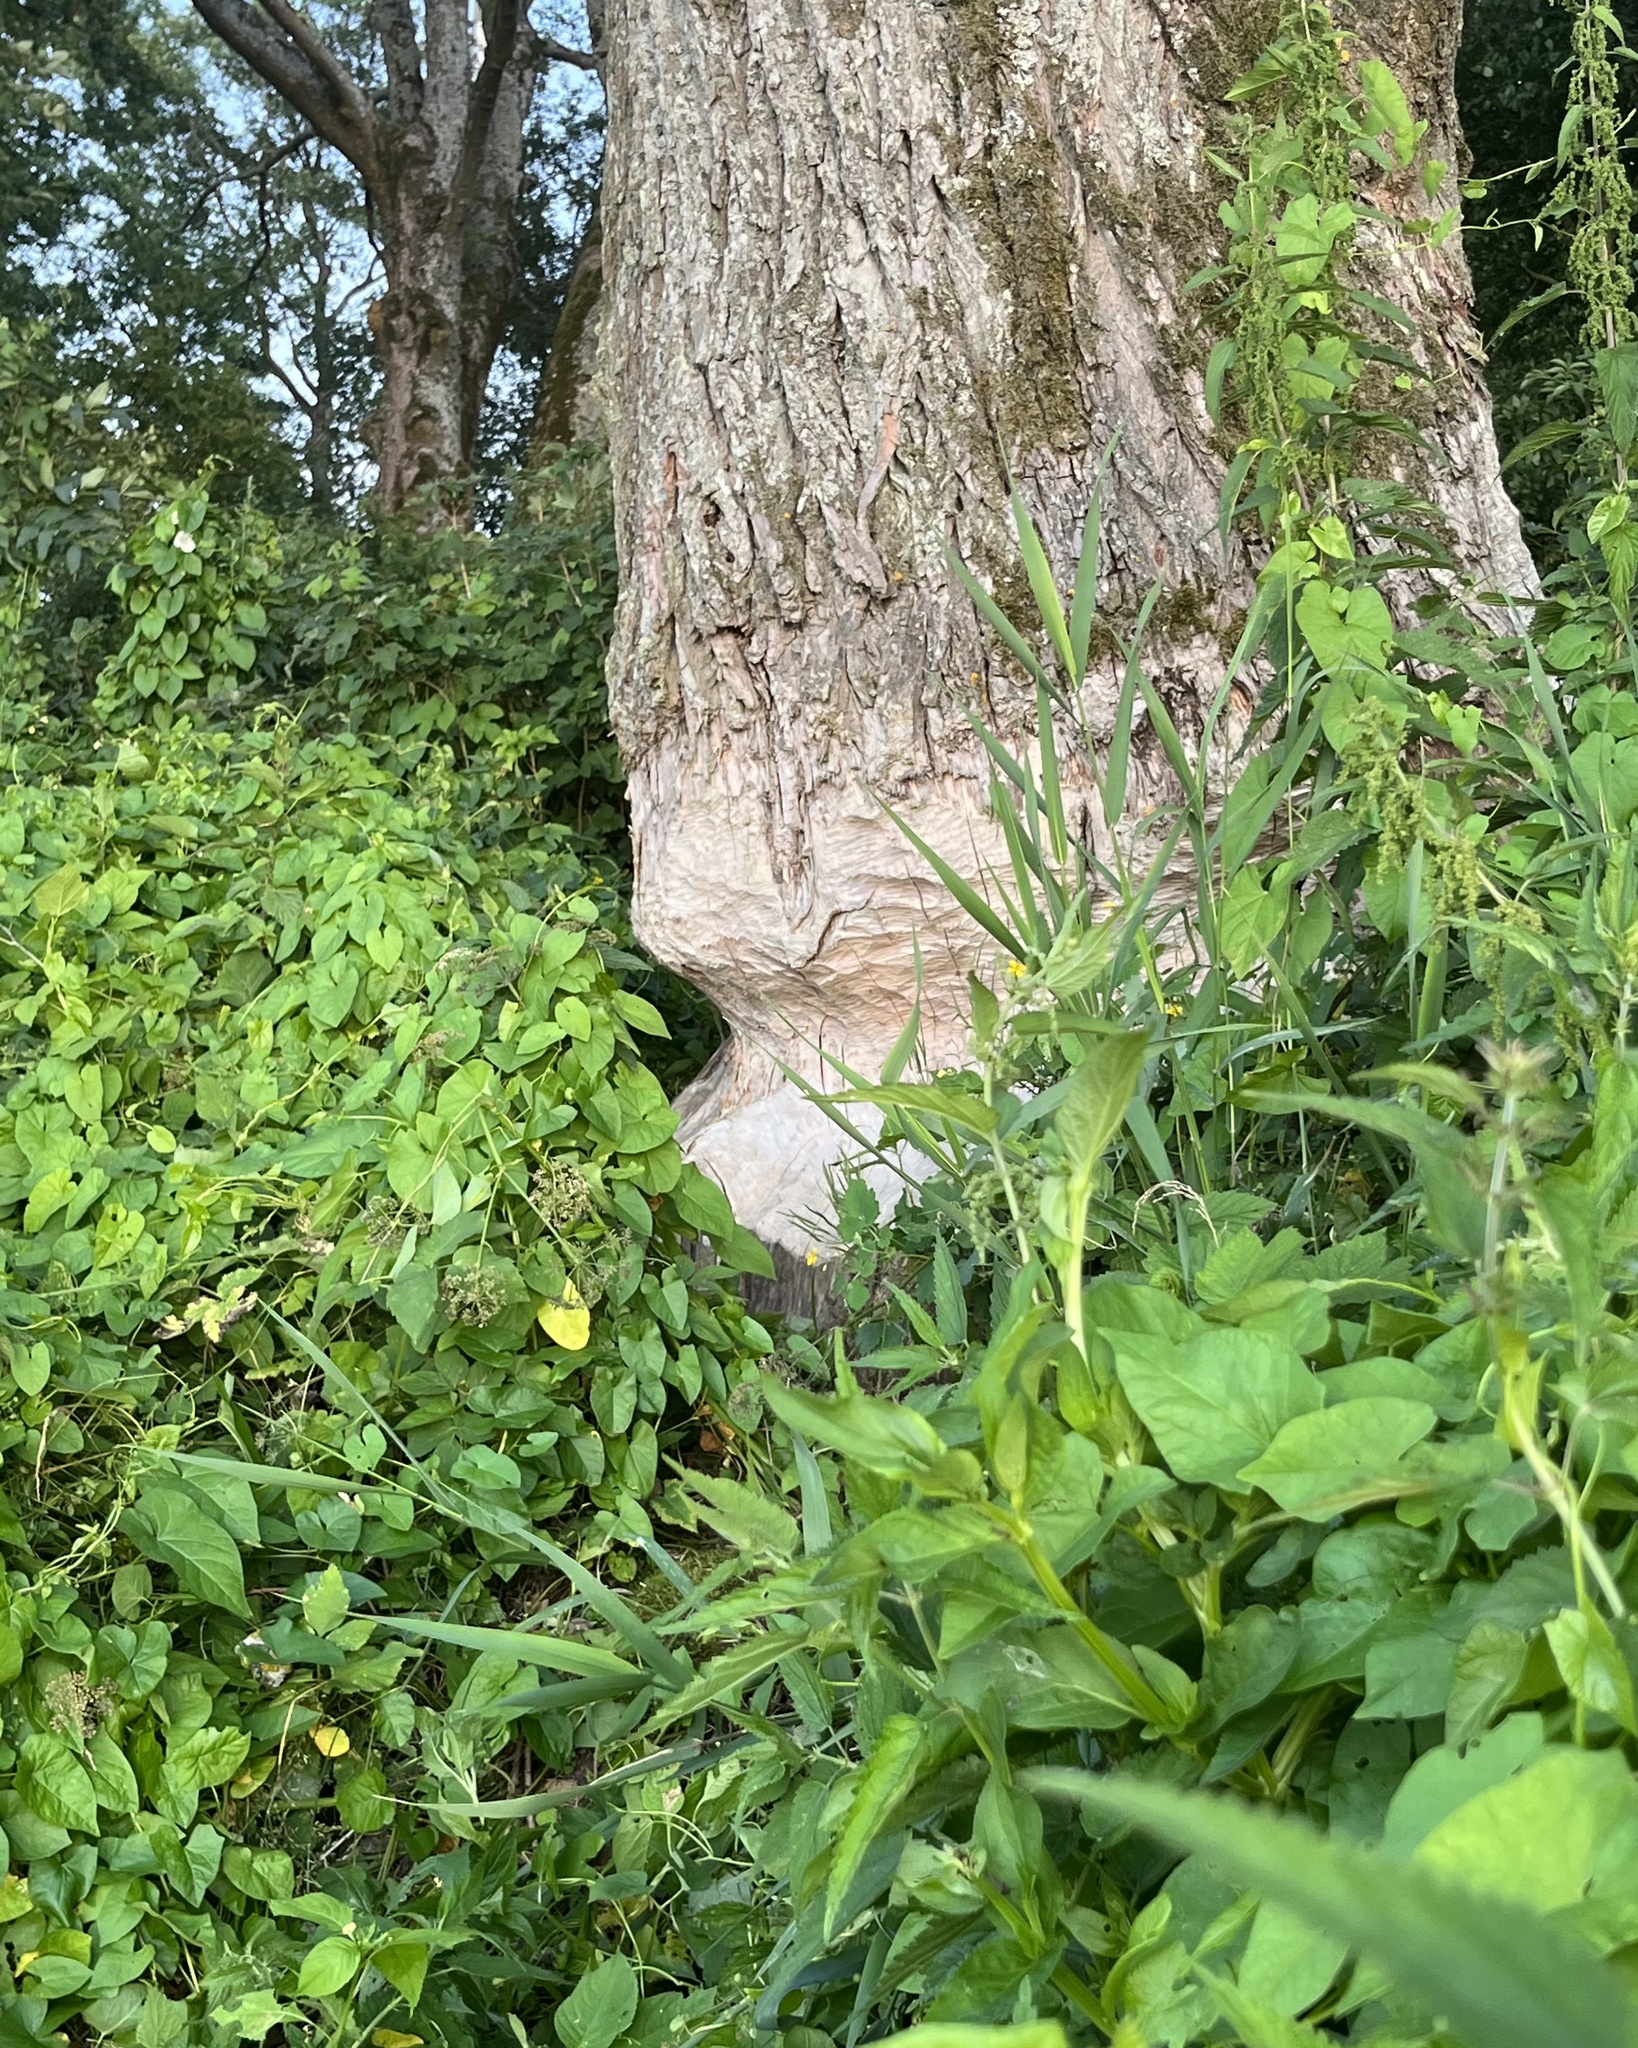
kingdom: Animalia
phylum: Chordata
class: Mammalia
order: Rodentia
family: Castoridae
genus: Castor
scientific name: Castor fiber
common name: Eurasian beaver
